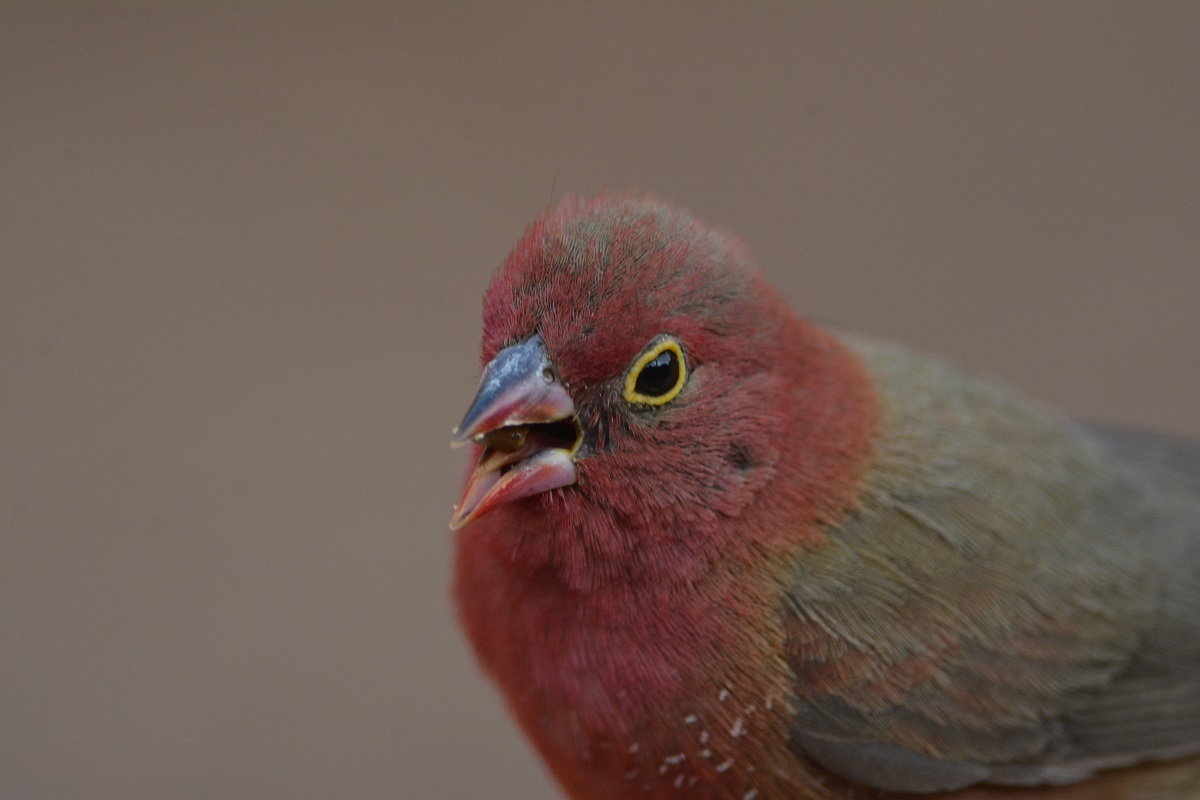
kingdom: Animalia
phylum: Chordata
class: Aves
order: Passeriformes
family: Estrildidae
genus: Lagonosticta
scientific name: Lagonosticta senegala
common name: Red-billed firefinch
